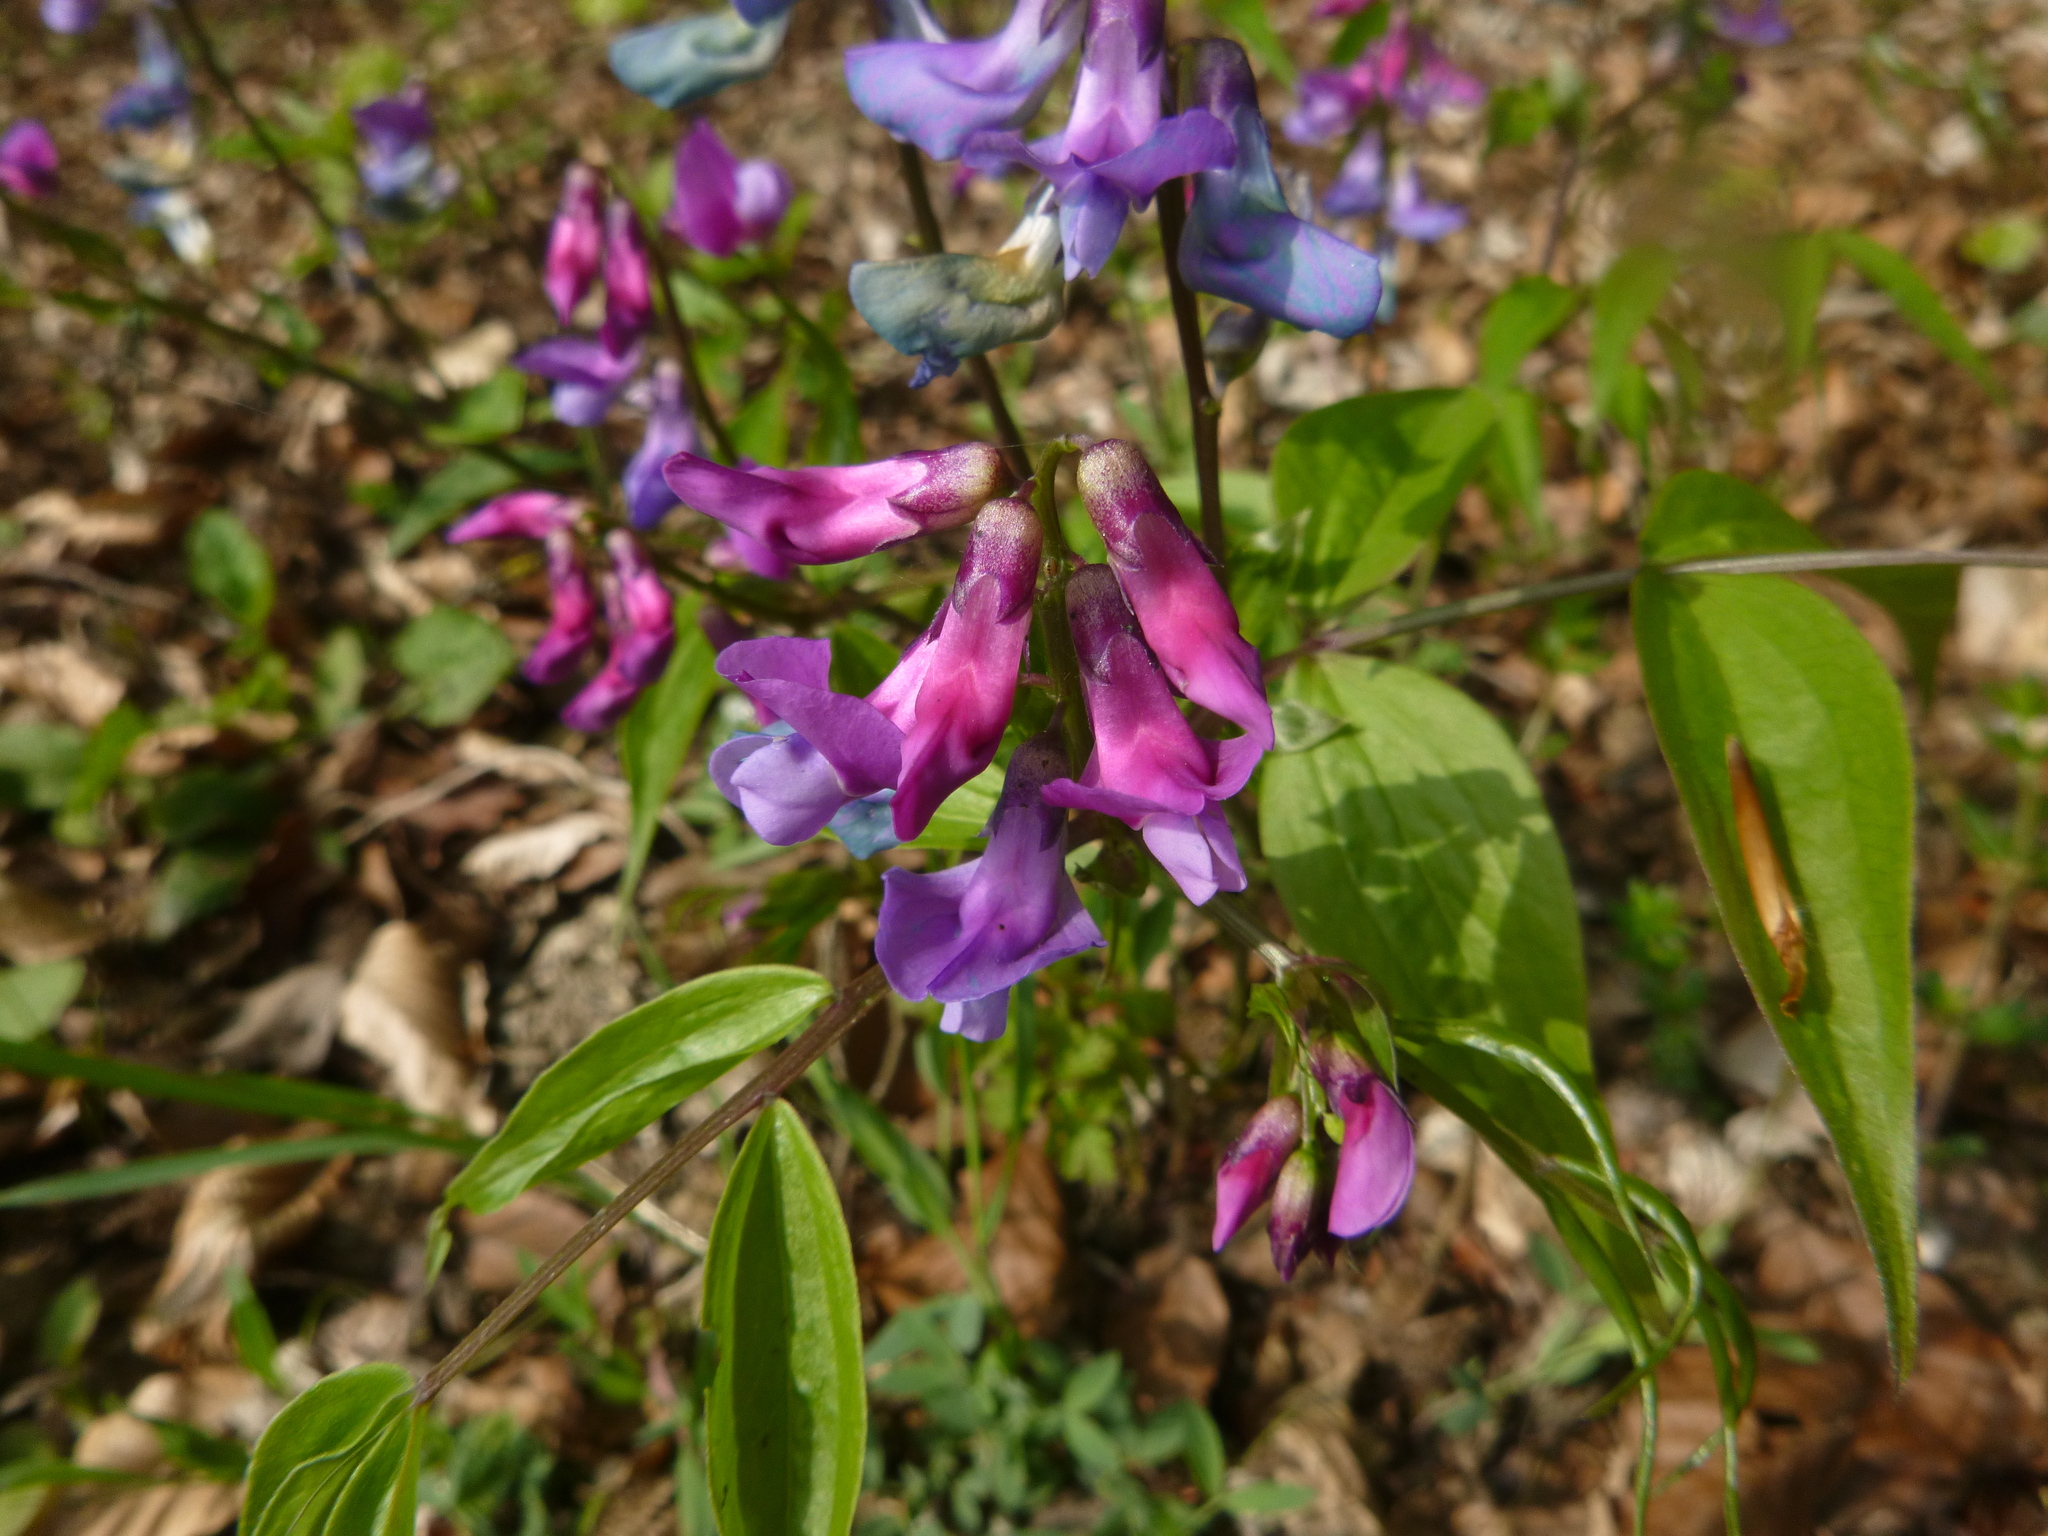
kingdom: Plantae
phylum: Tracheophyta
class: Magnoliopsida
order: Fabales
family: Fabaceae
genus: Lathyrus
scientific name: Lathyrus vernus
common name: Spring pea
